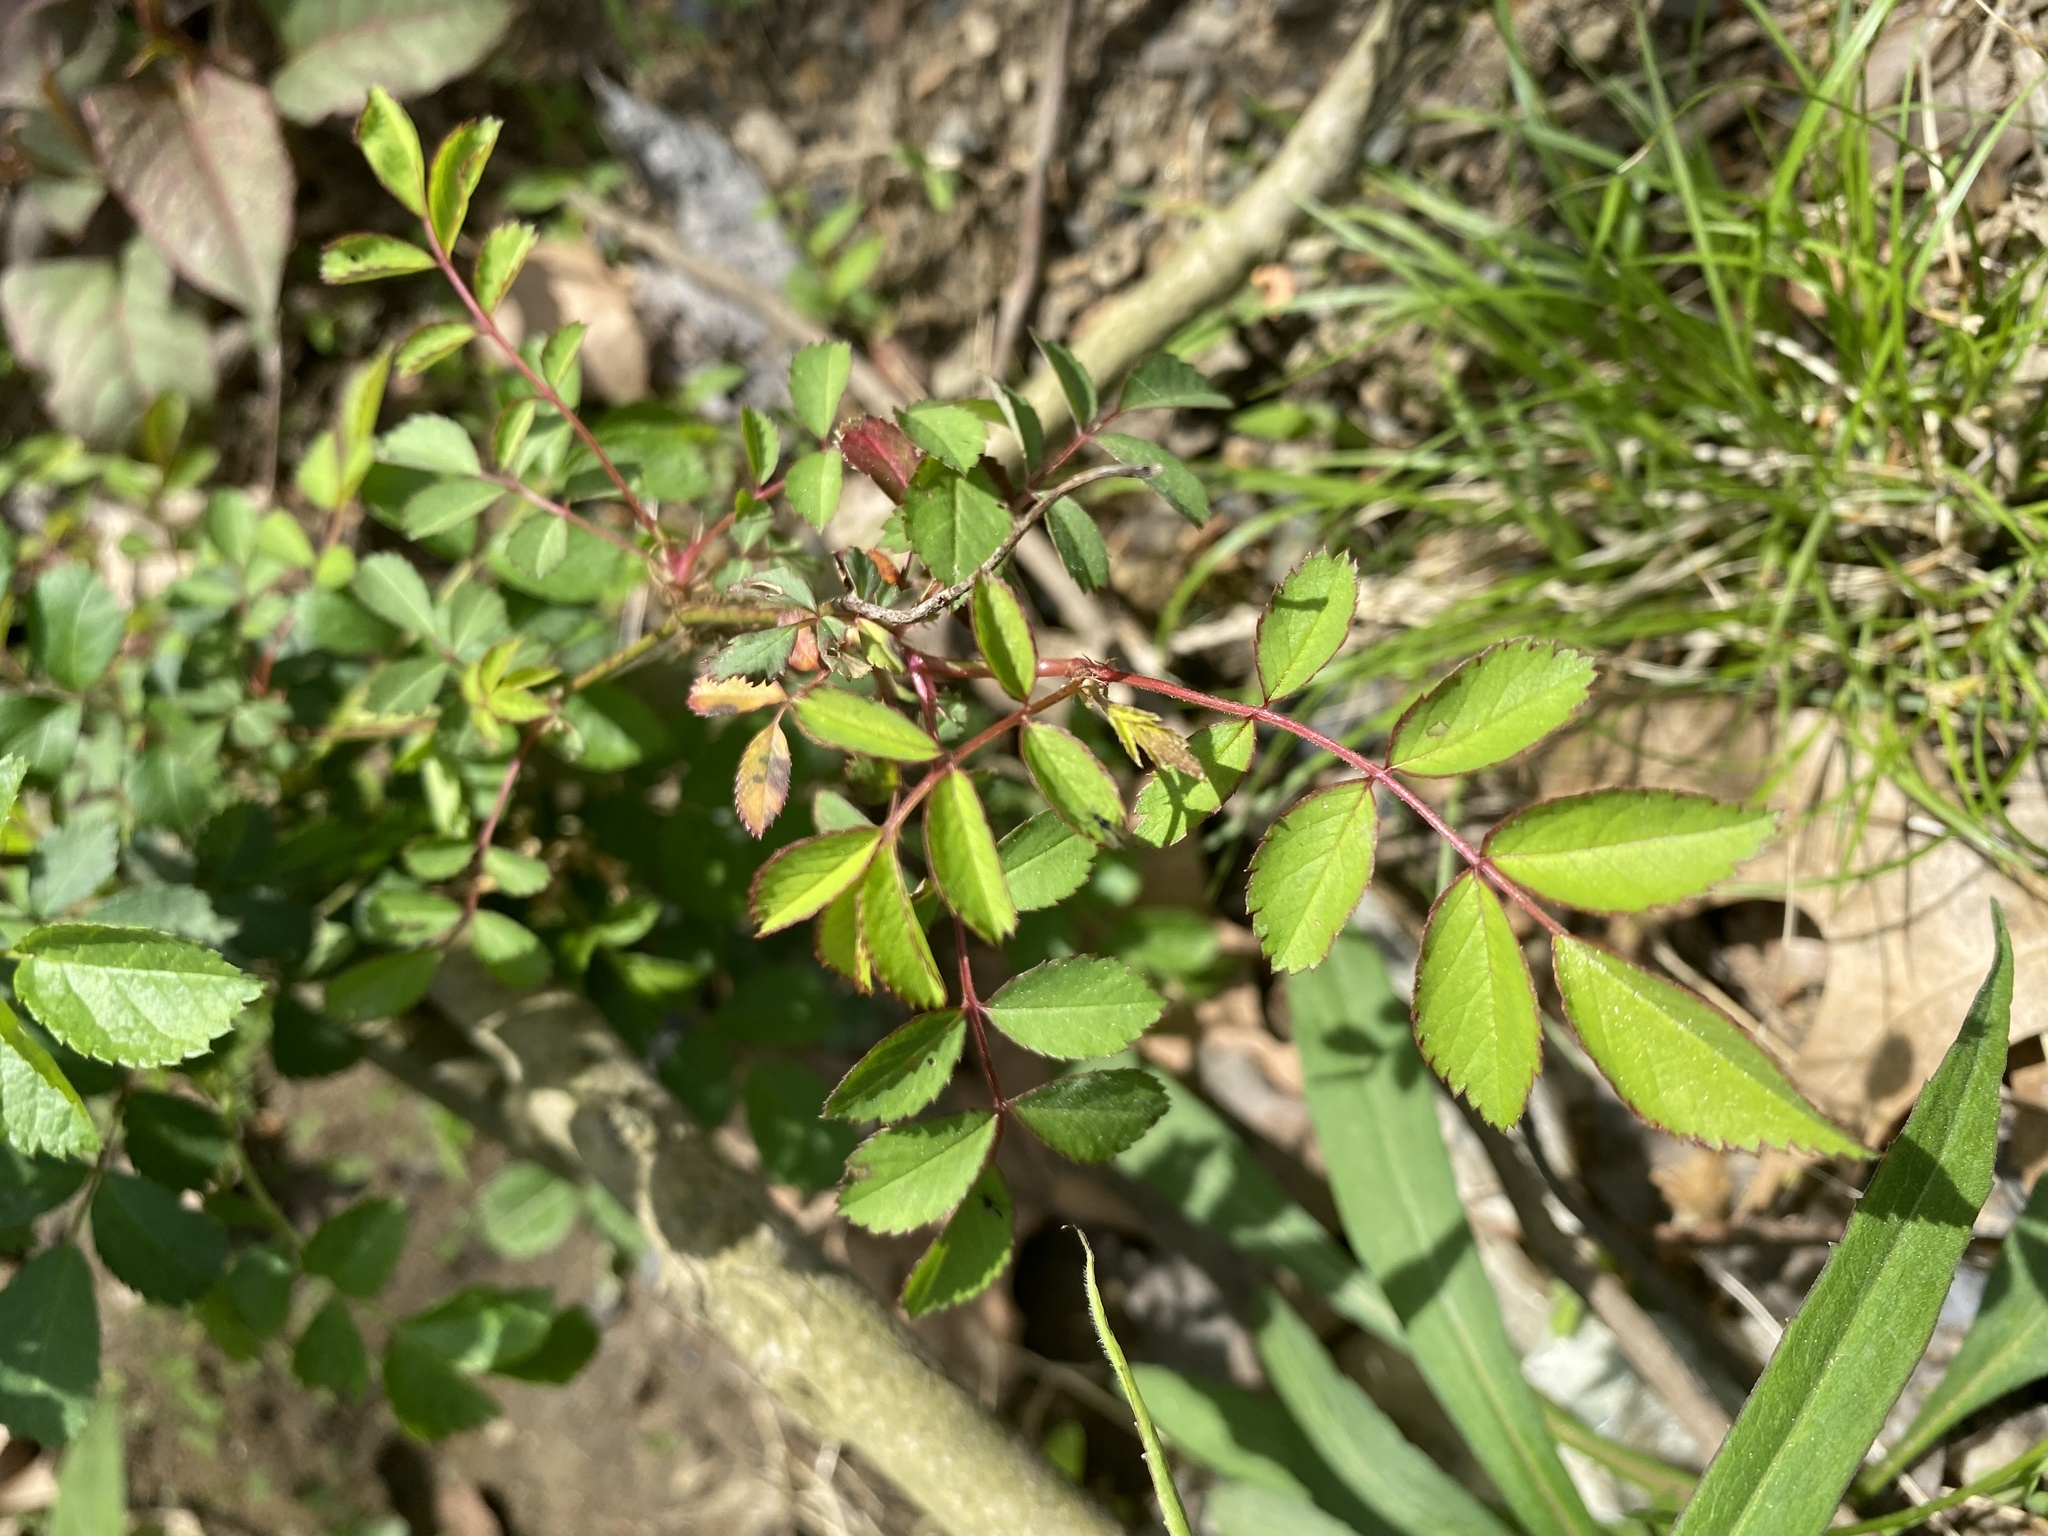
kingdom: Plantae
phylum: Tracheophyta
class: Magnoliopsida
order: Rosales
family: Rosaceae
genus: Rosa
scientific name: Rosa multiflora
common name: Multiflora rose
